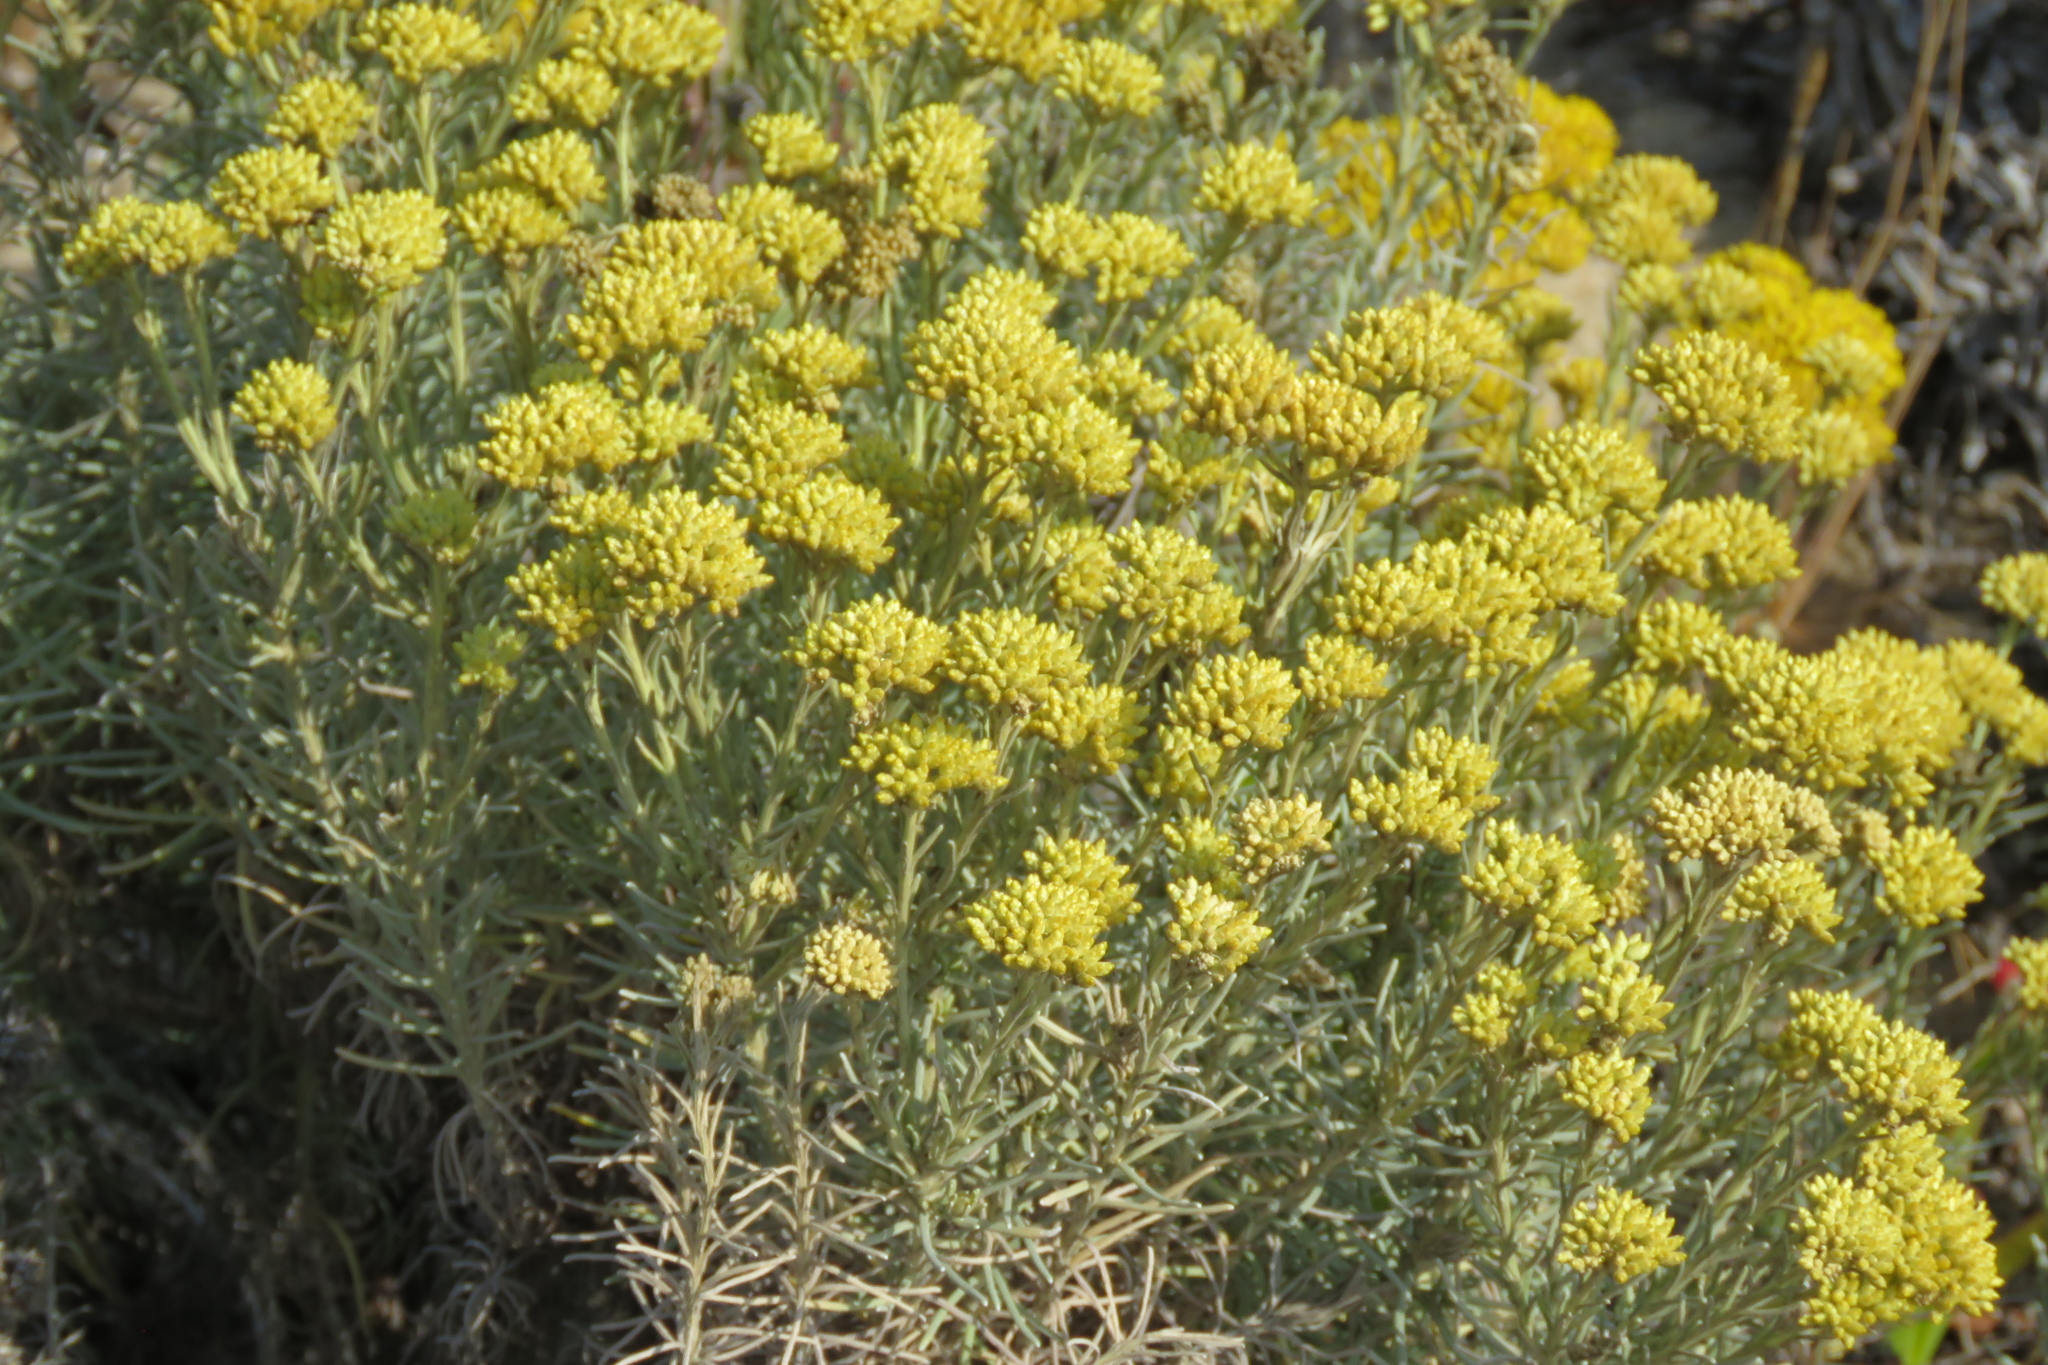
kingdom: Plantae
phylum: Tracheophyta
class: Magnoliopsida
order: Asterales
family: Asteraceae
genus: Helichrysum
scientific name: Helichrysum serotinum
